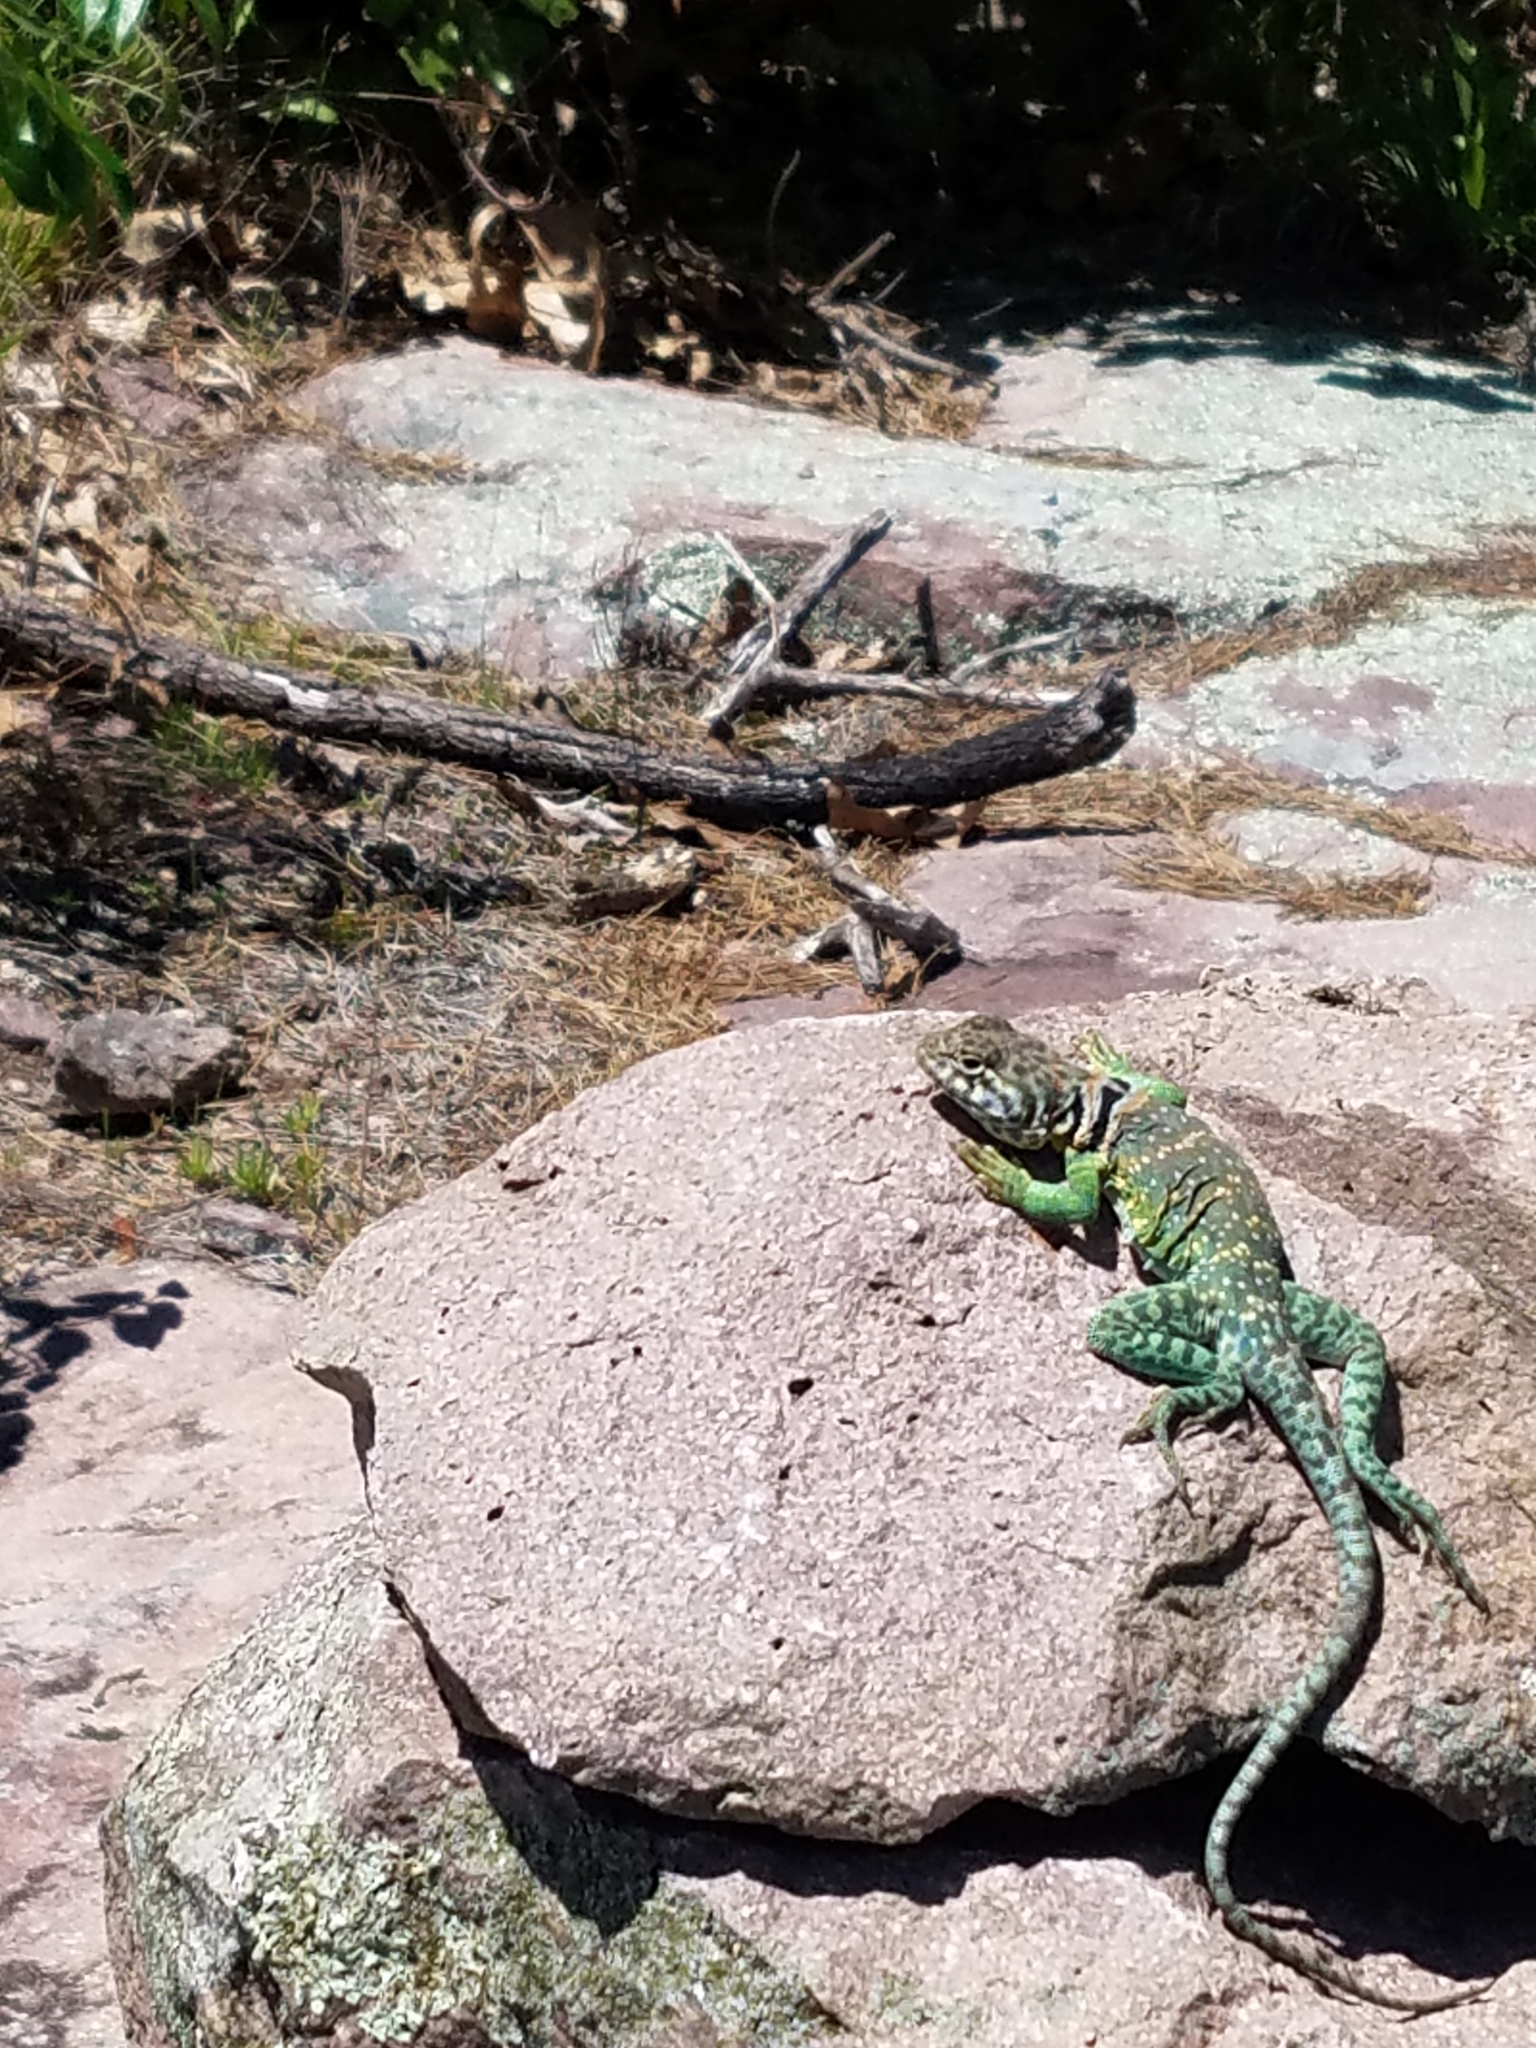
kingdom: Animalia
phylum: Chordata
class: Squamata
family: Crotaphytidae
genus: Crotaphytus
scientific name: Crotaphytus collaris
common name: Collared lizard
